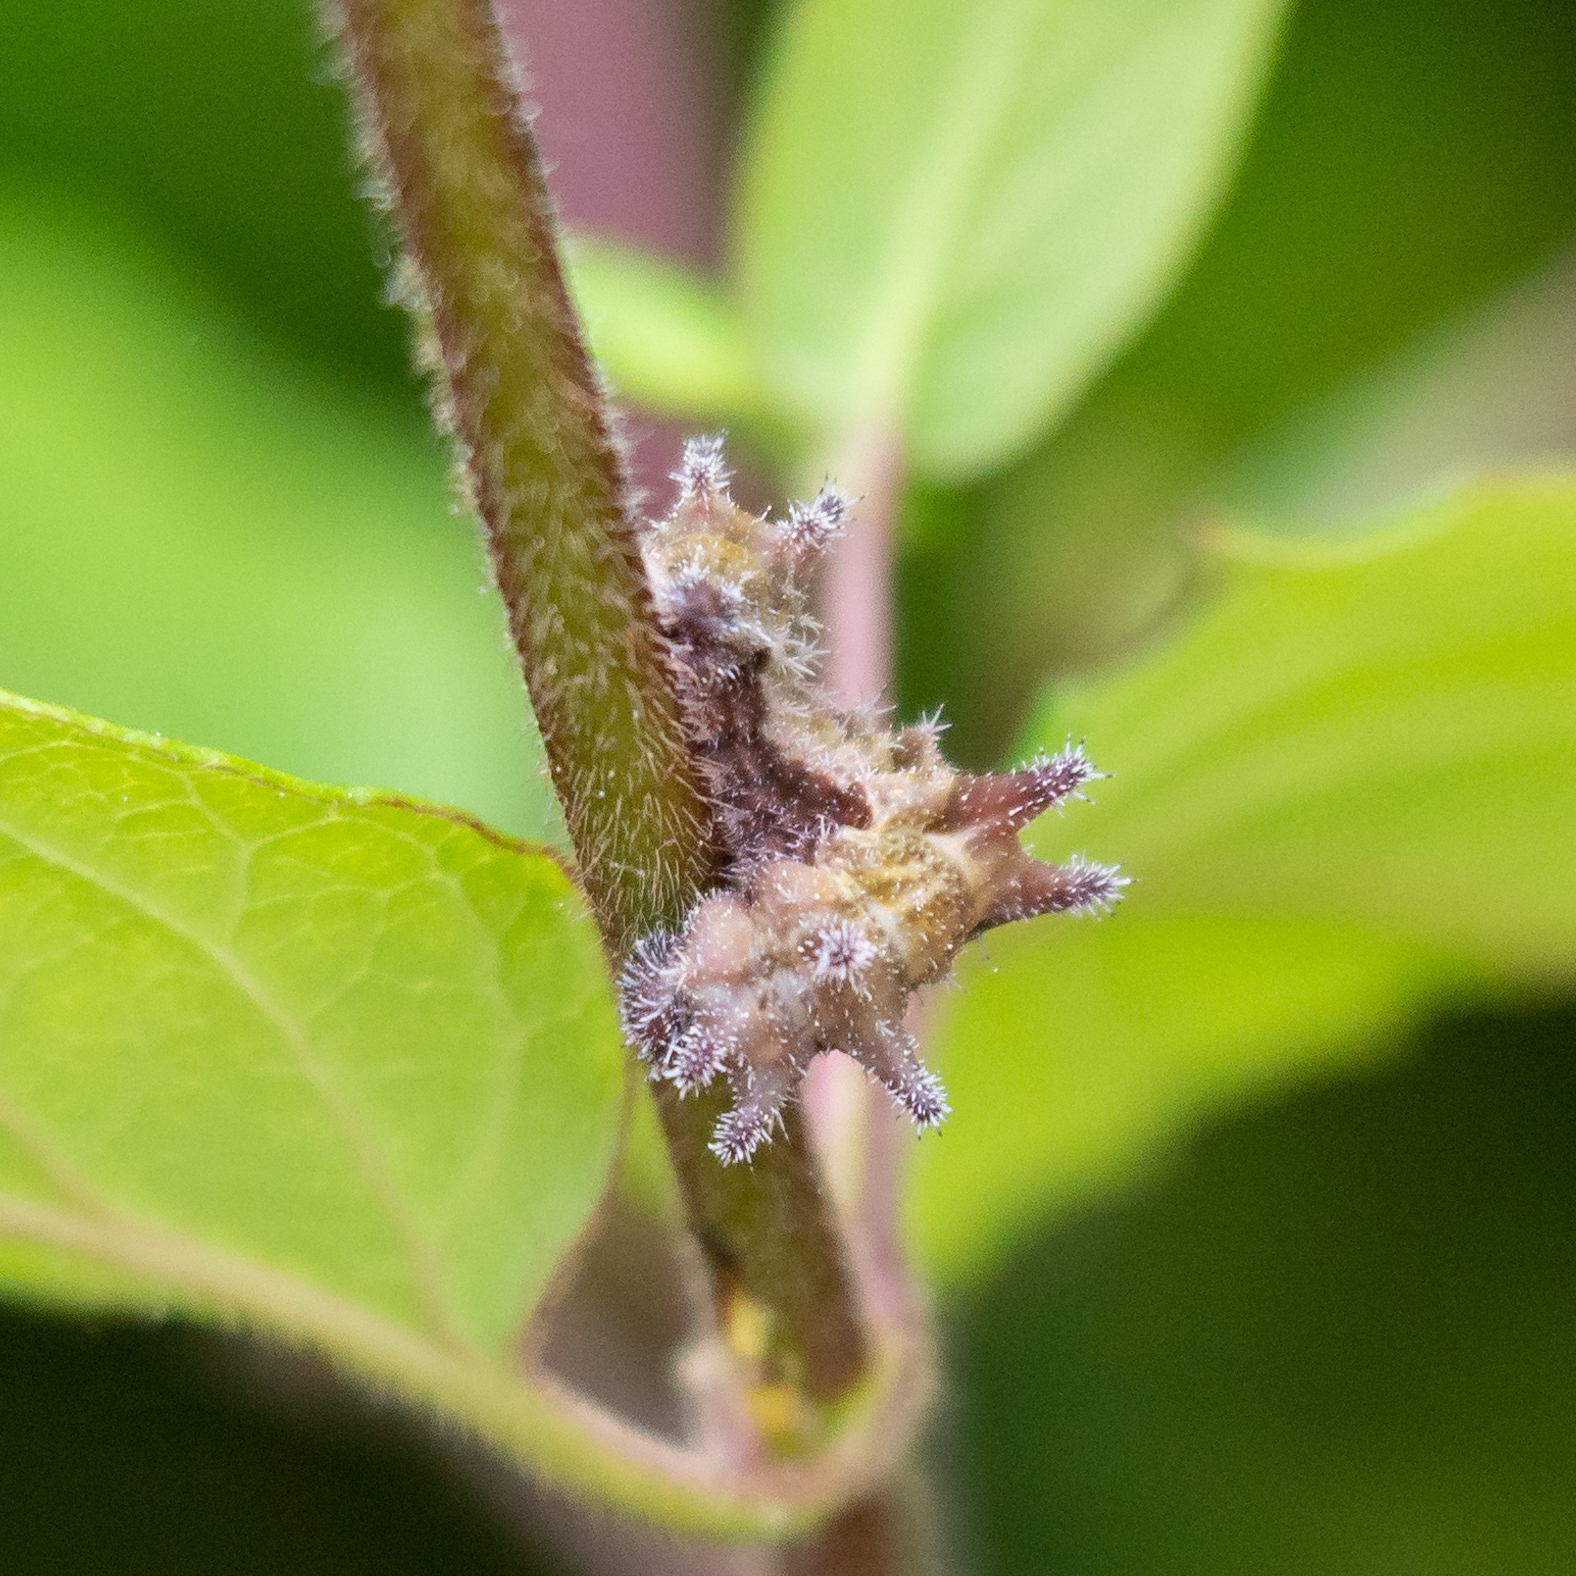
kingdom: Animalia
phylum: Arthropoda
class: Insecta
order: Lepidoptera
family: Nymphalidae
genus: Limenitis
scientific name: Limenitis reducta
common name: Southern white admiral
